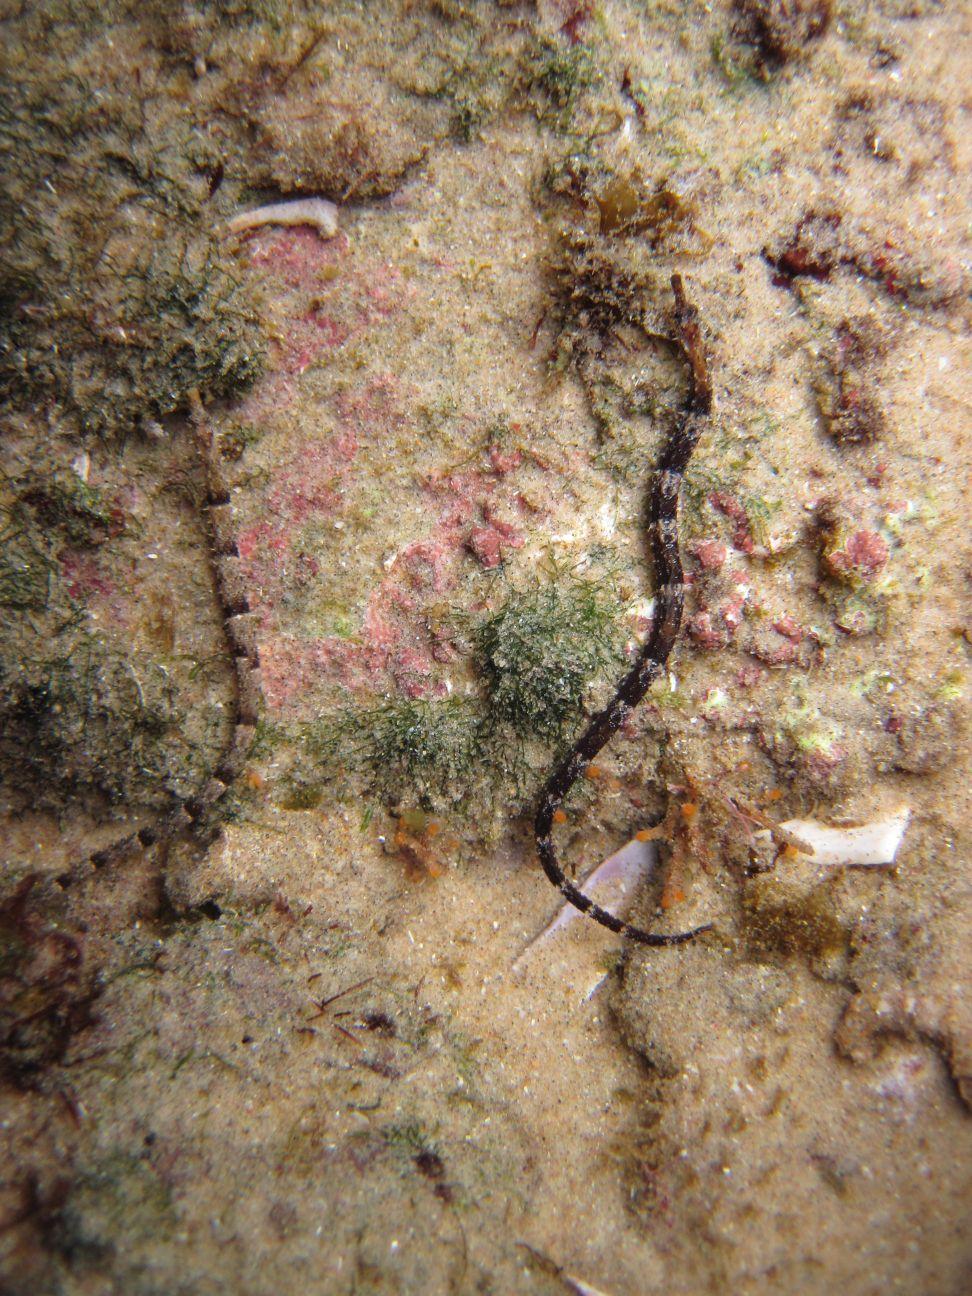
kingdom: Animalia
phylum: Chordata
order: Syngnathiformes
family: Syngnathidae
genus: Trachyrhamphus
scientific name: Trachyrhamphus bicoarctatus
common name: Double-ended pipefish
